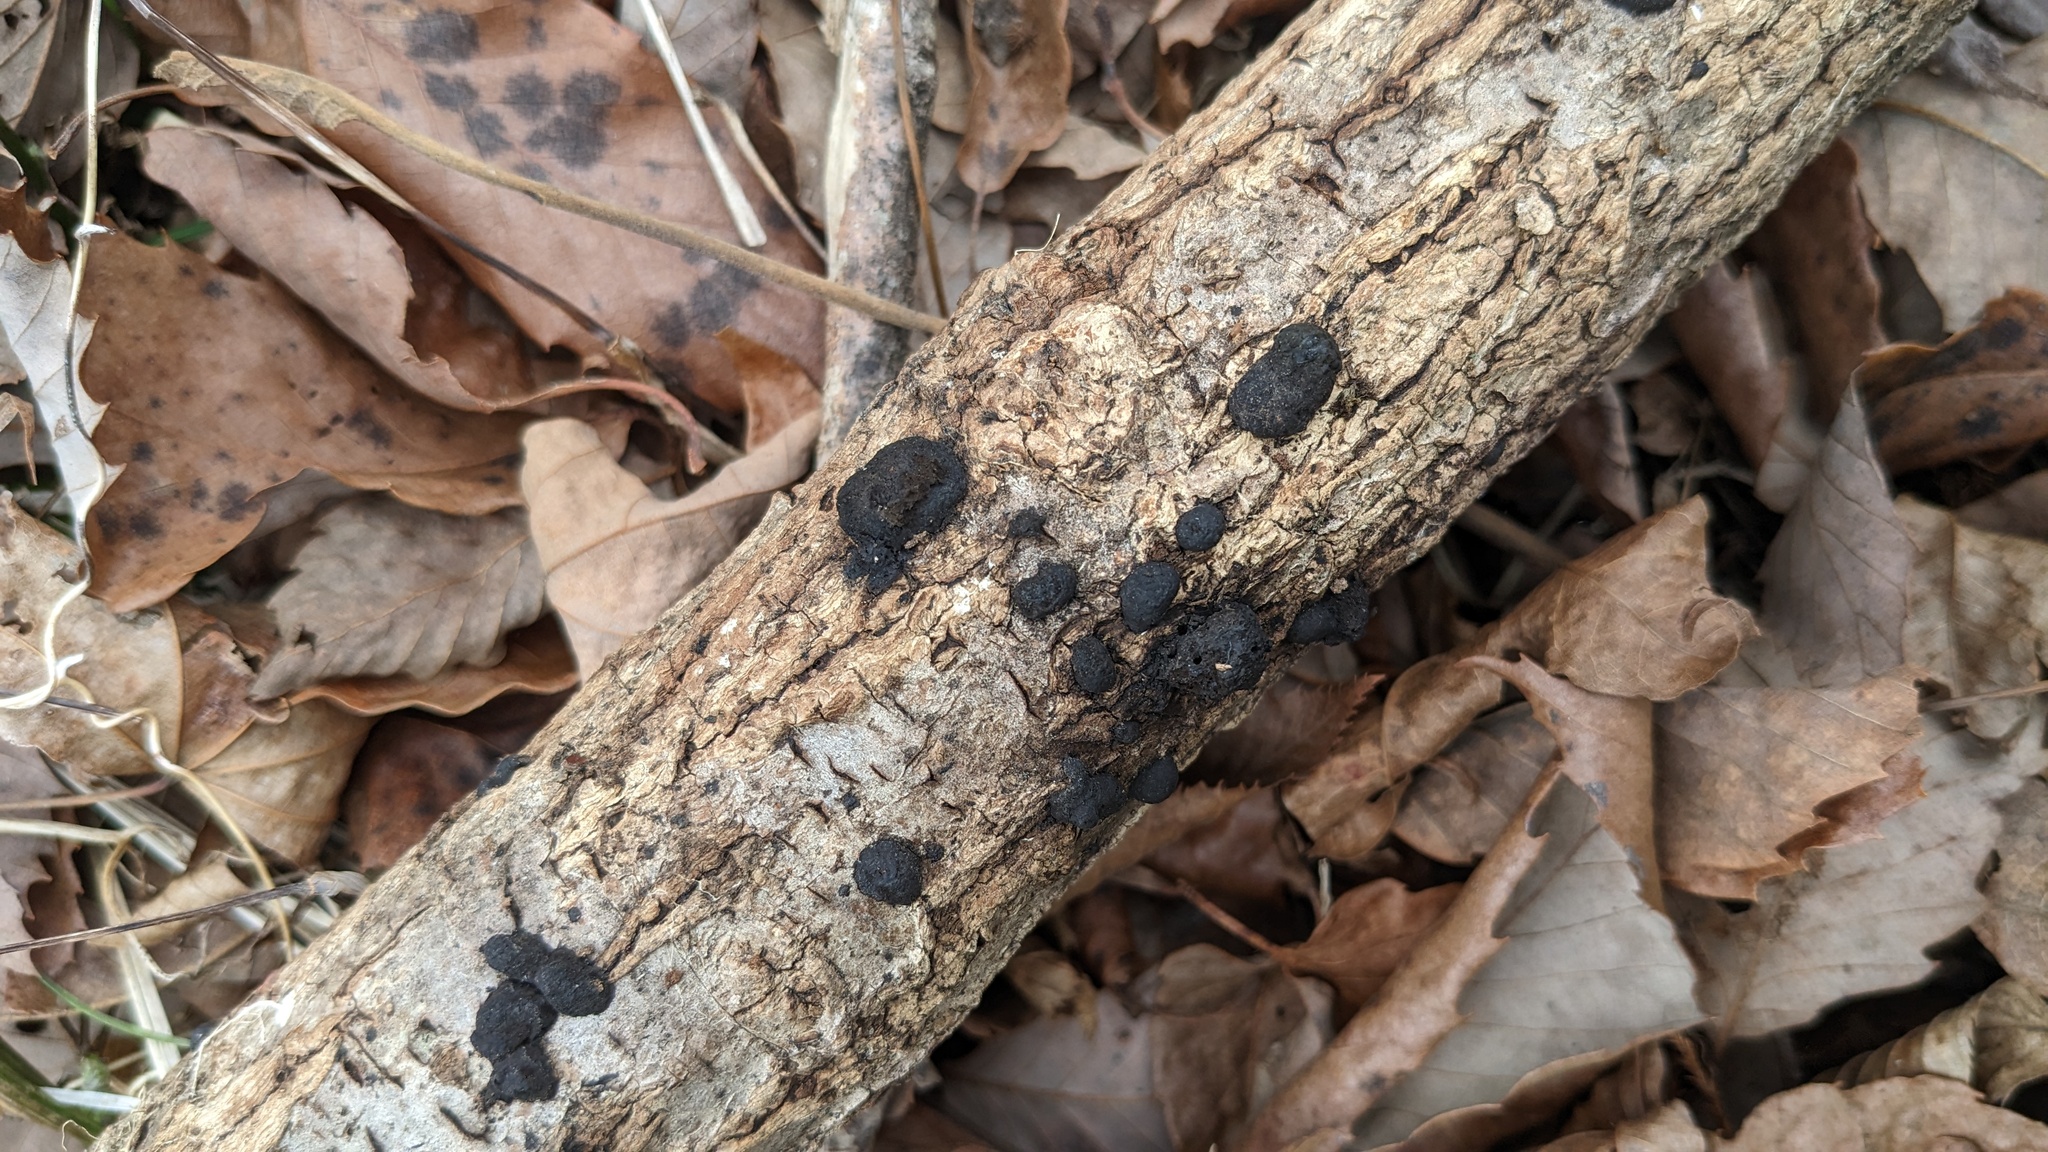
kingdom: Fungi
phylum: Ascomycota
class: Sordariomycetes
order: Xylariales
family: Hypoxylaceae
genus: Annulohypoxylon
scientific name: Annulohypoxylon truncatum
